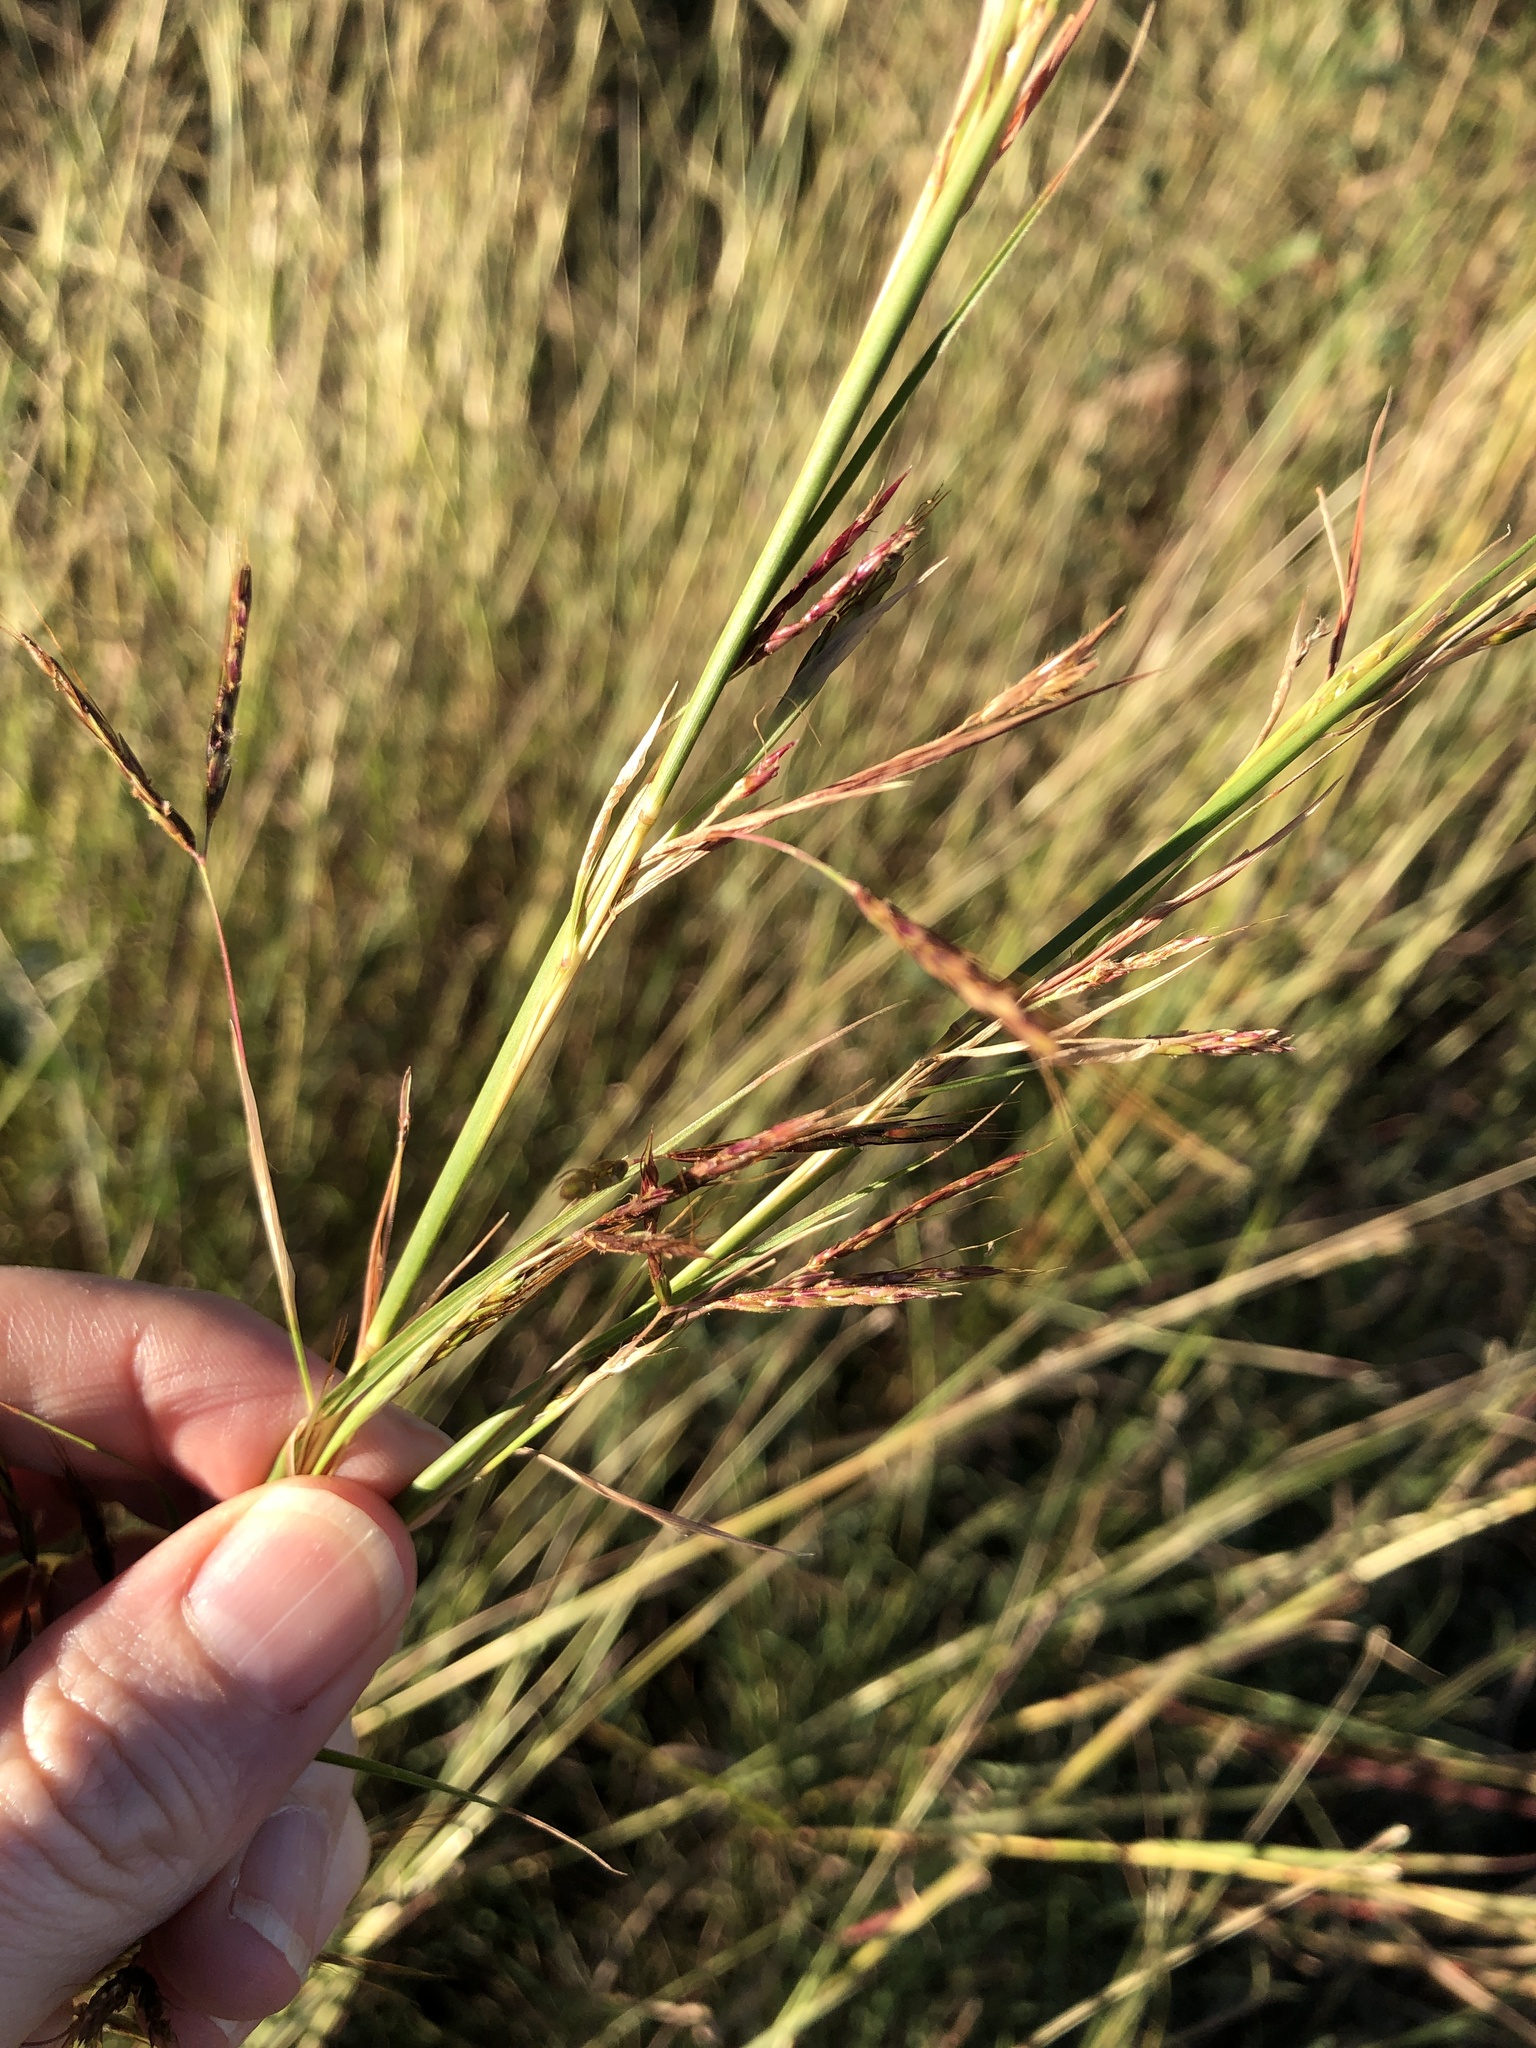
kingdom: Plantae
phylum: Tracheophyta
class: Liliopsida
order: Poales
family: Poaceae
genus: Hyparrhenia
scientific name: Hyparrhenia rufa
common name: Jaraguagrass
